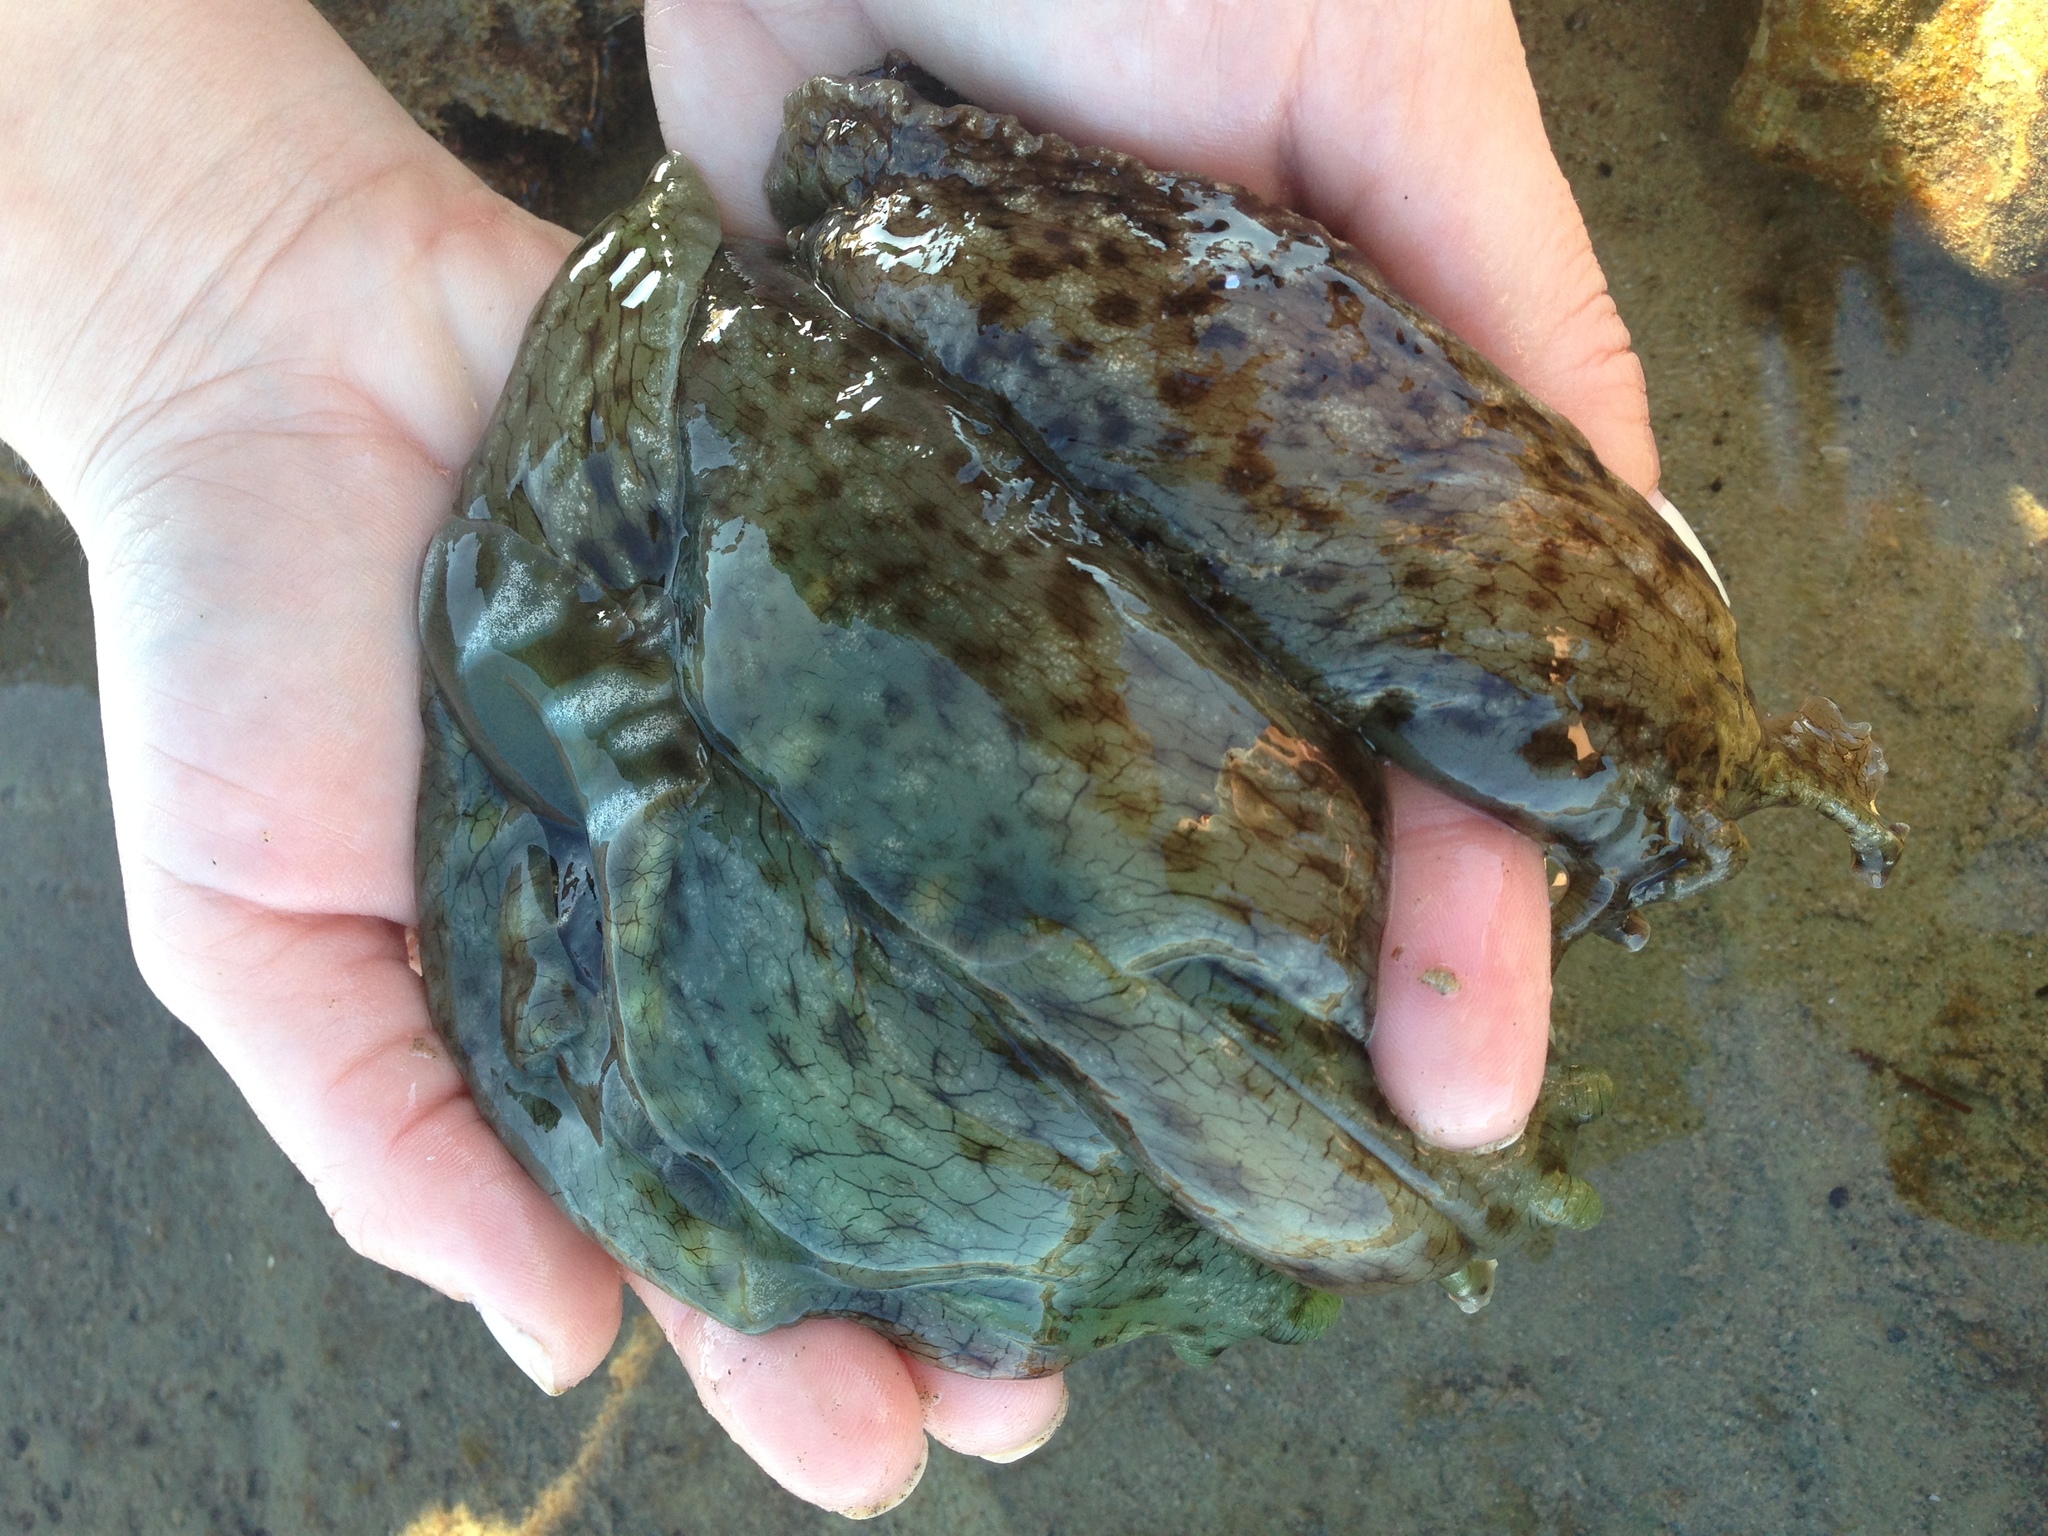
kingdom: Animalia
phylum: Mollusca
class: Gastropoda
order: Aplysiida
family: Aplysiidae
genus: Aplysia
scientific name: Aplysia californica
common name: California seahare
